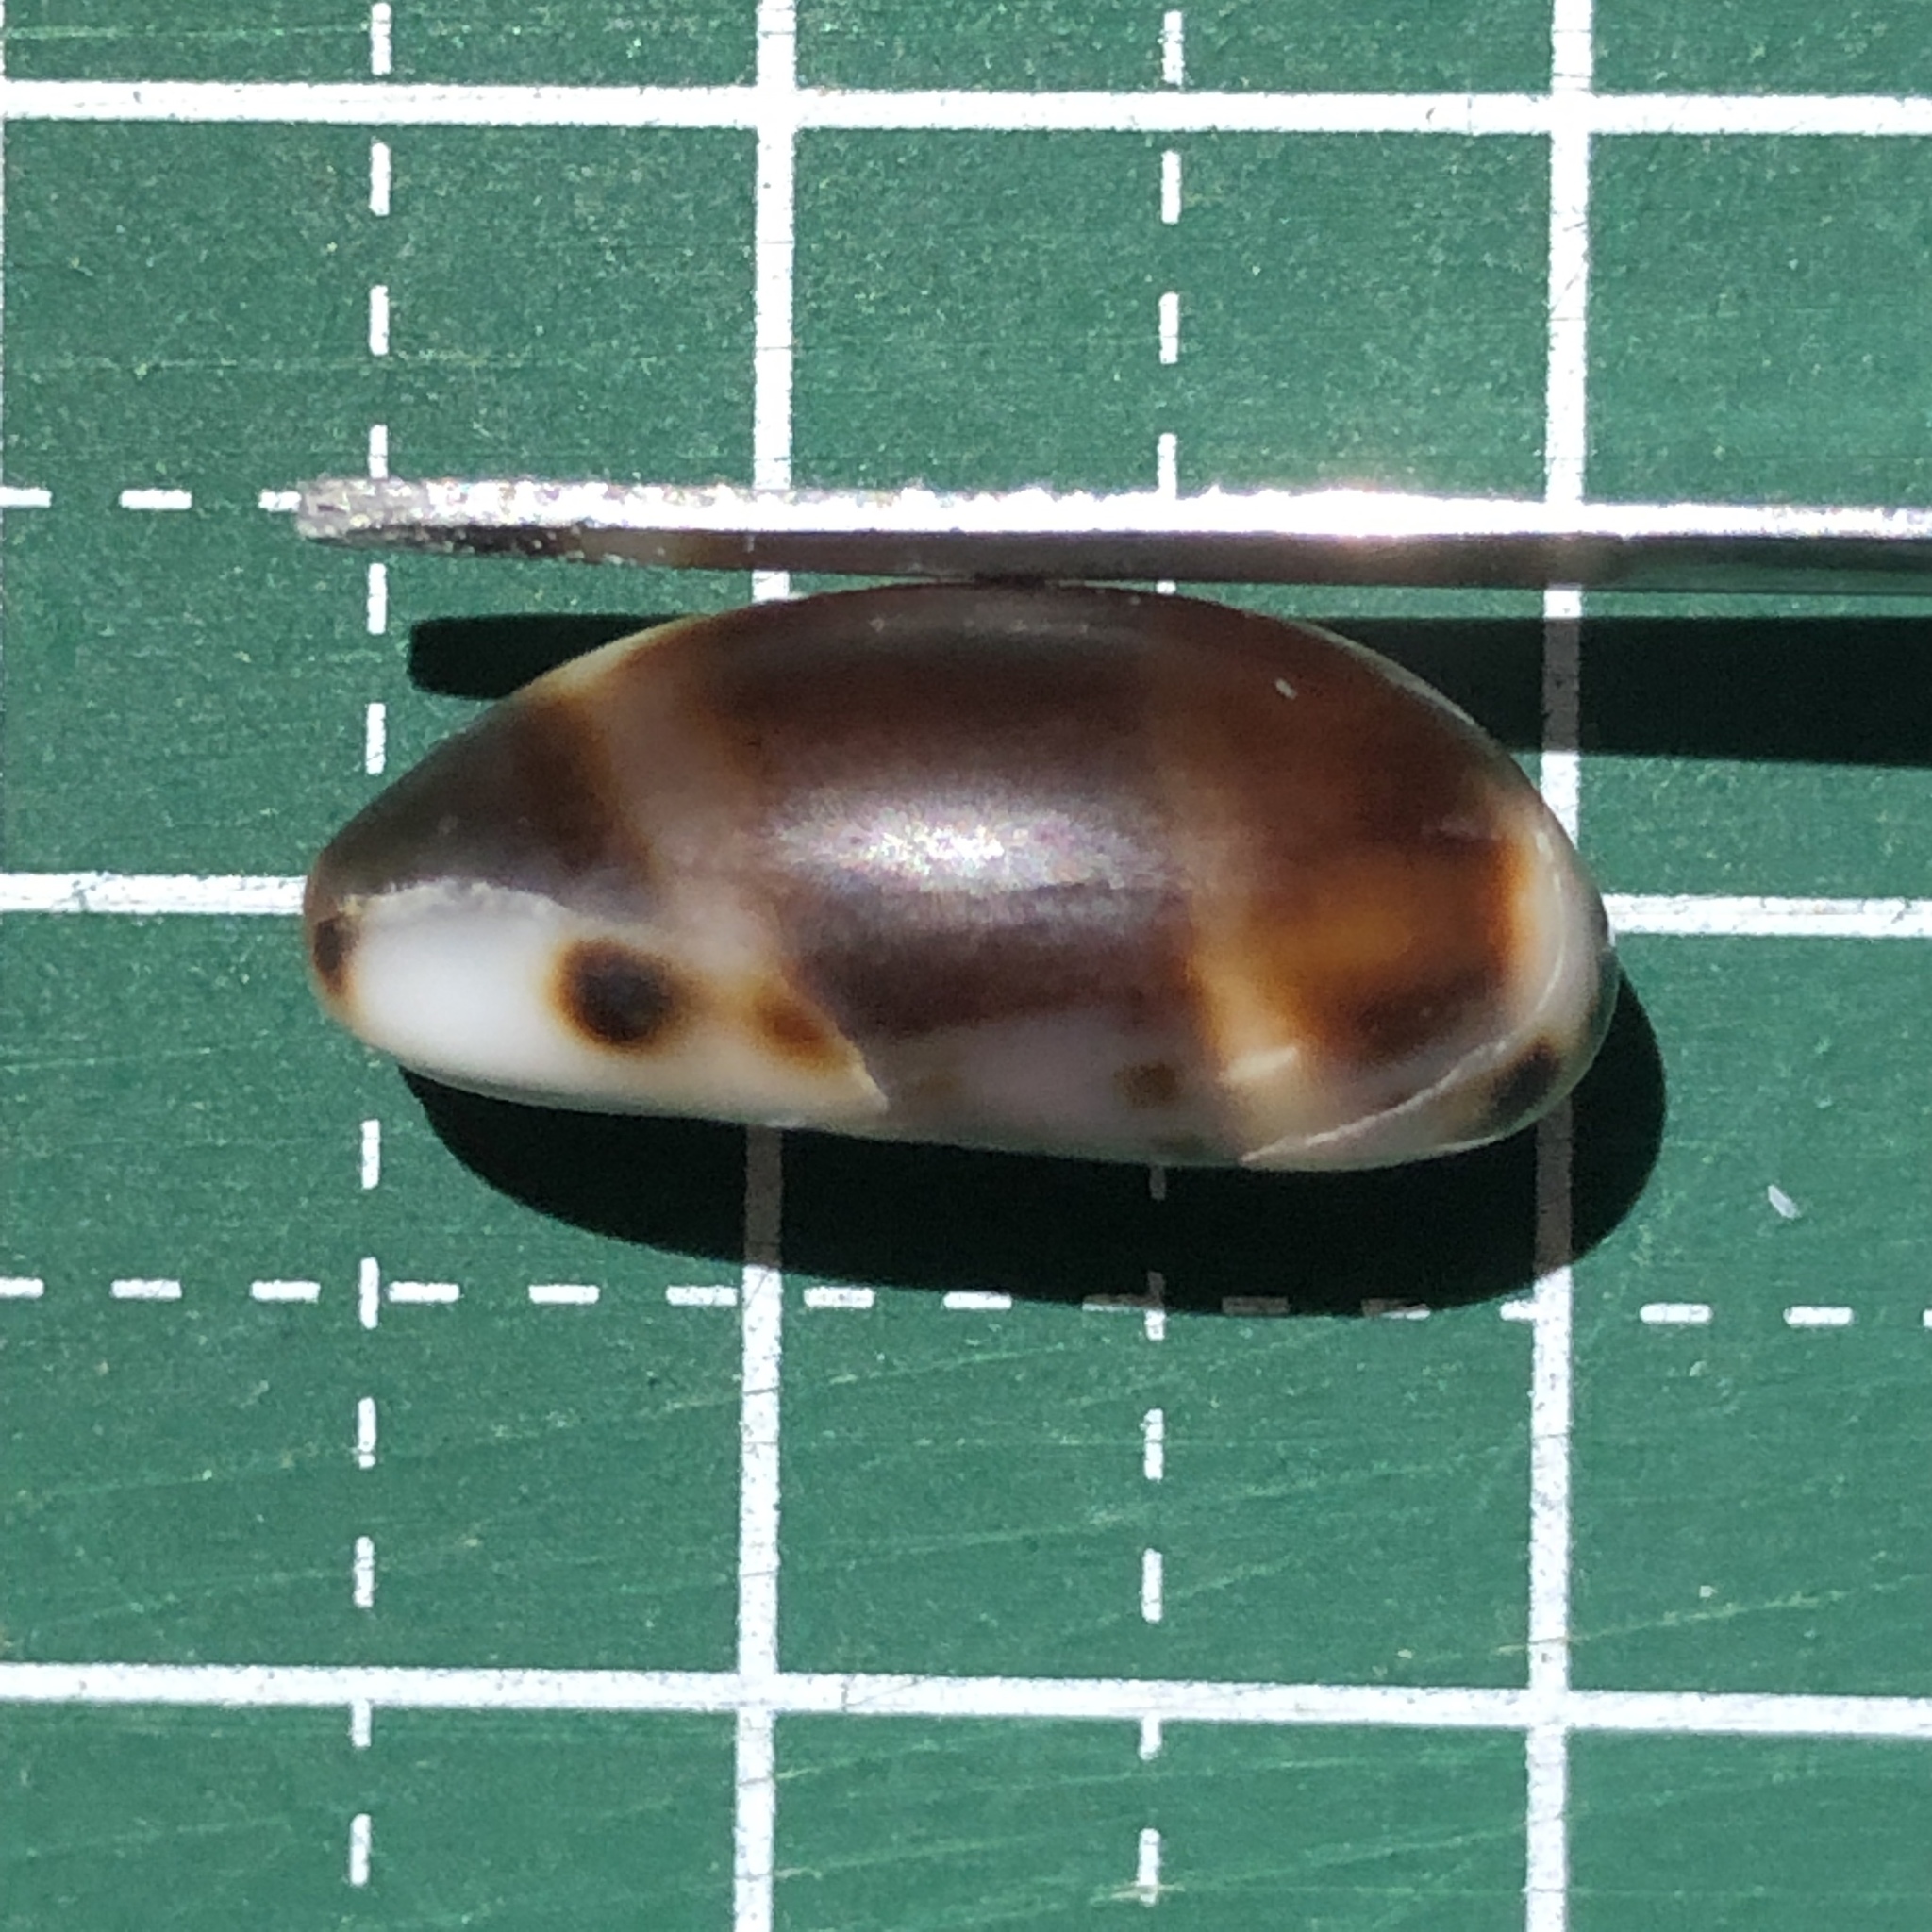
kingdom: Animalia
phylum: Mollusca
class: Gastropoda
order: Littorinimorpha
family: Cypraeidae
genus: Melicerona
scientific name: Melicerona listeri
